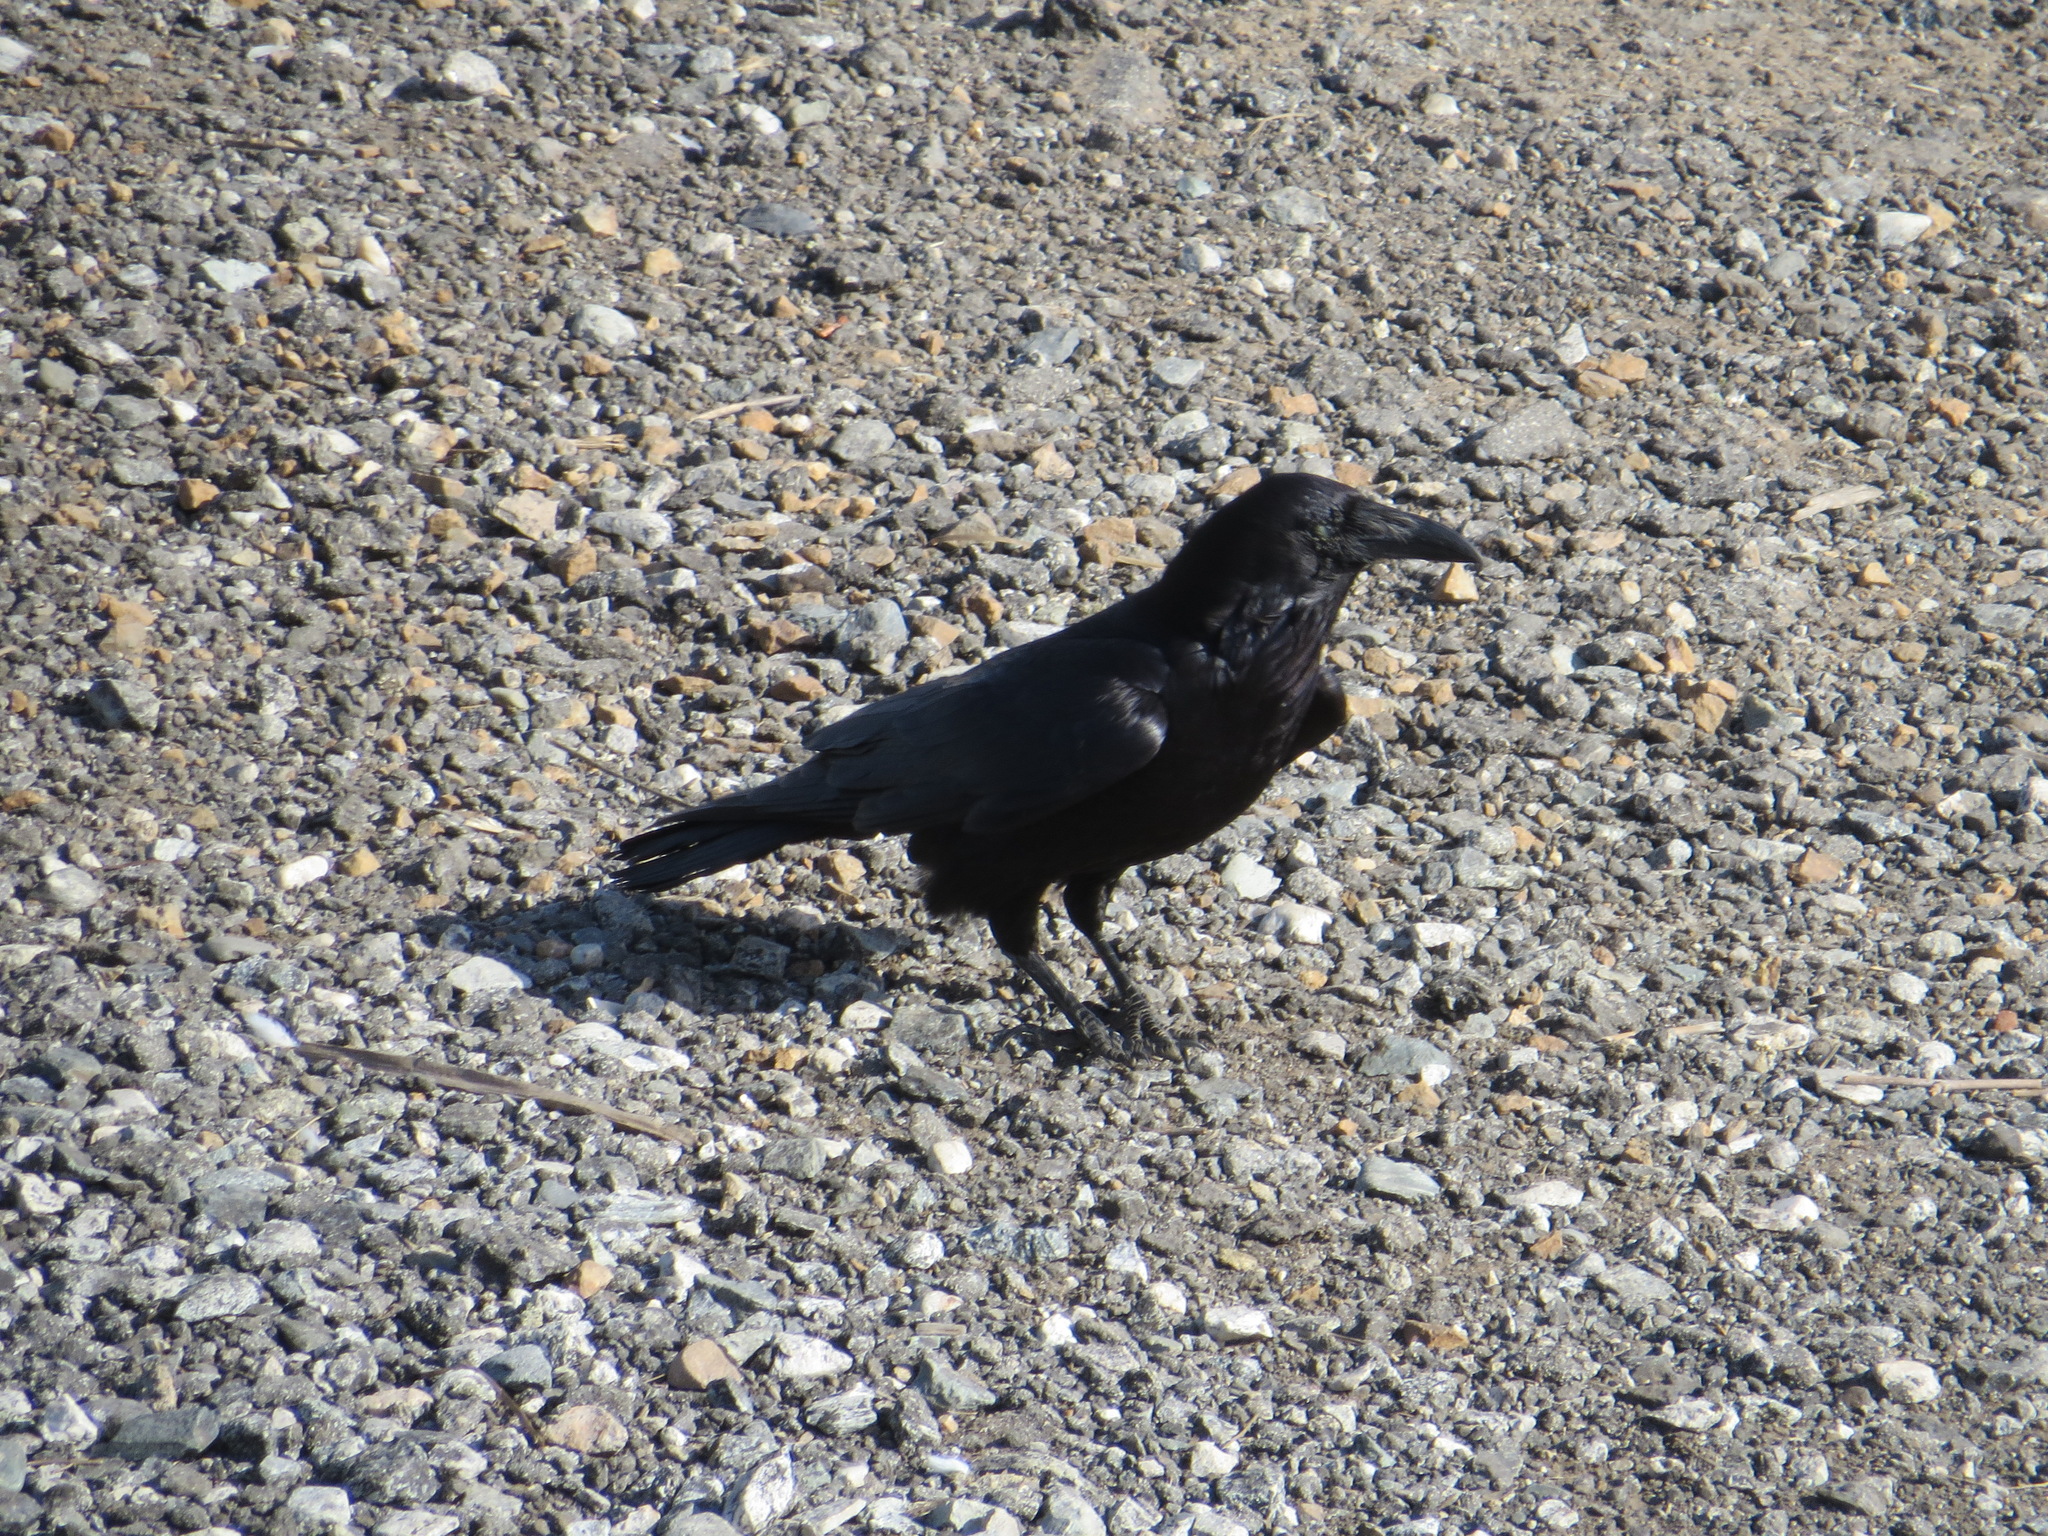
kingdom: Animalia
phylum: Chordata
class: Aves
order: Passeriformes
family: Corvidae
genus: Corvus
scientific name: Corvus corax
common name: Common raven
